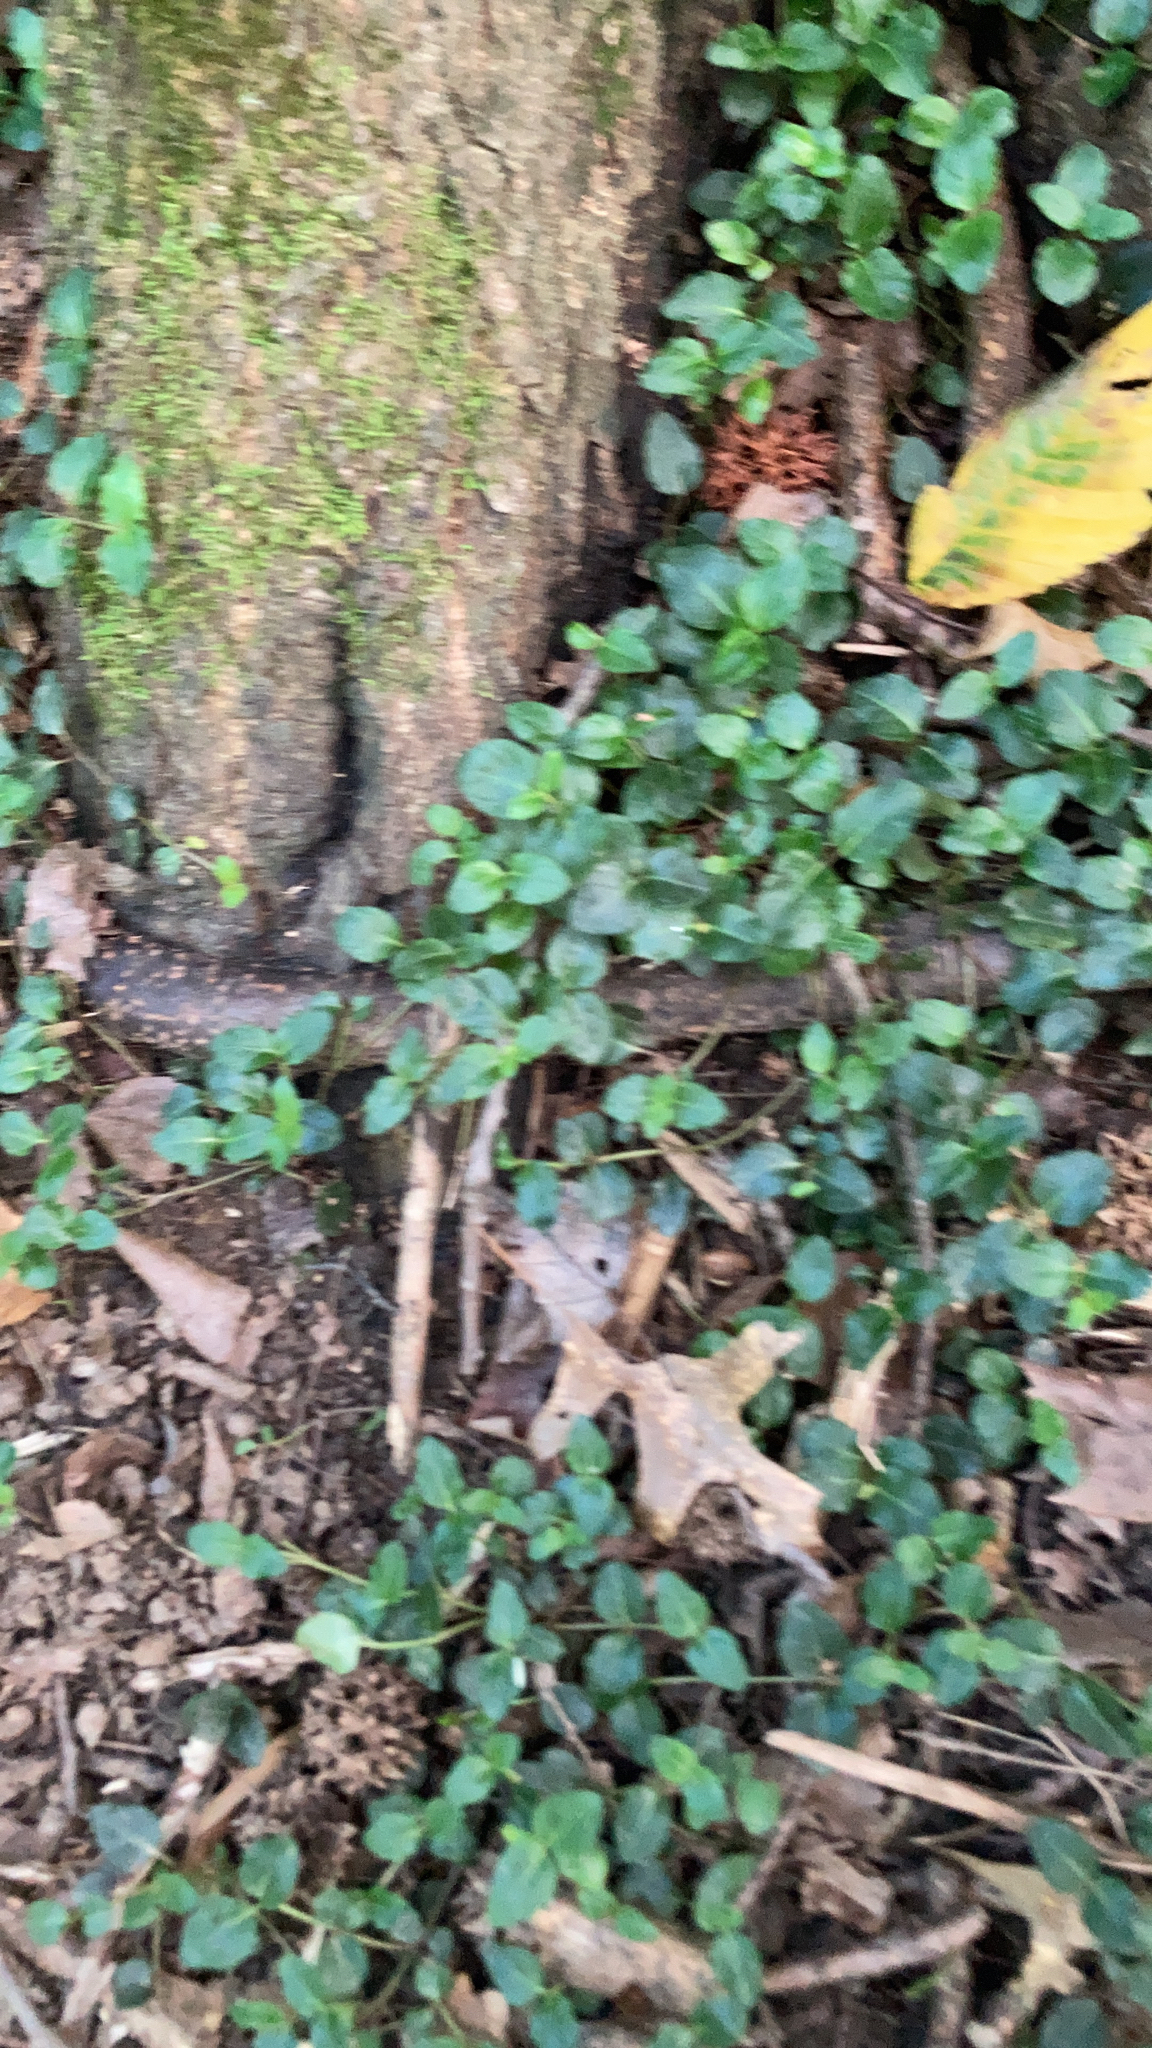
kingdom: Plantae
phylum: Tracheophyta
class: Magnoliopsida
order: Gentianales
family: Rubiaceae
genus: Mitchella
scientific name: Mitchella repens
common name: Partridge-berry
